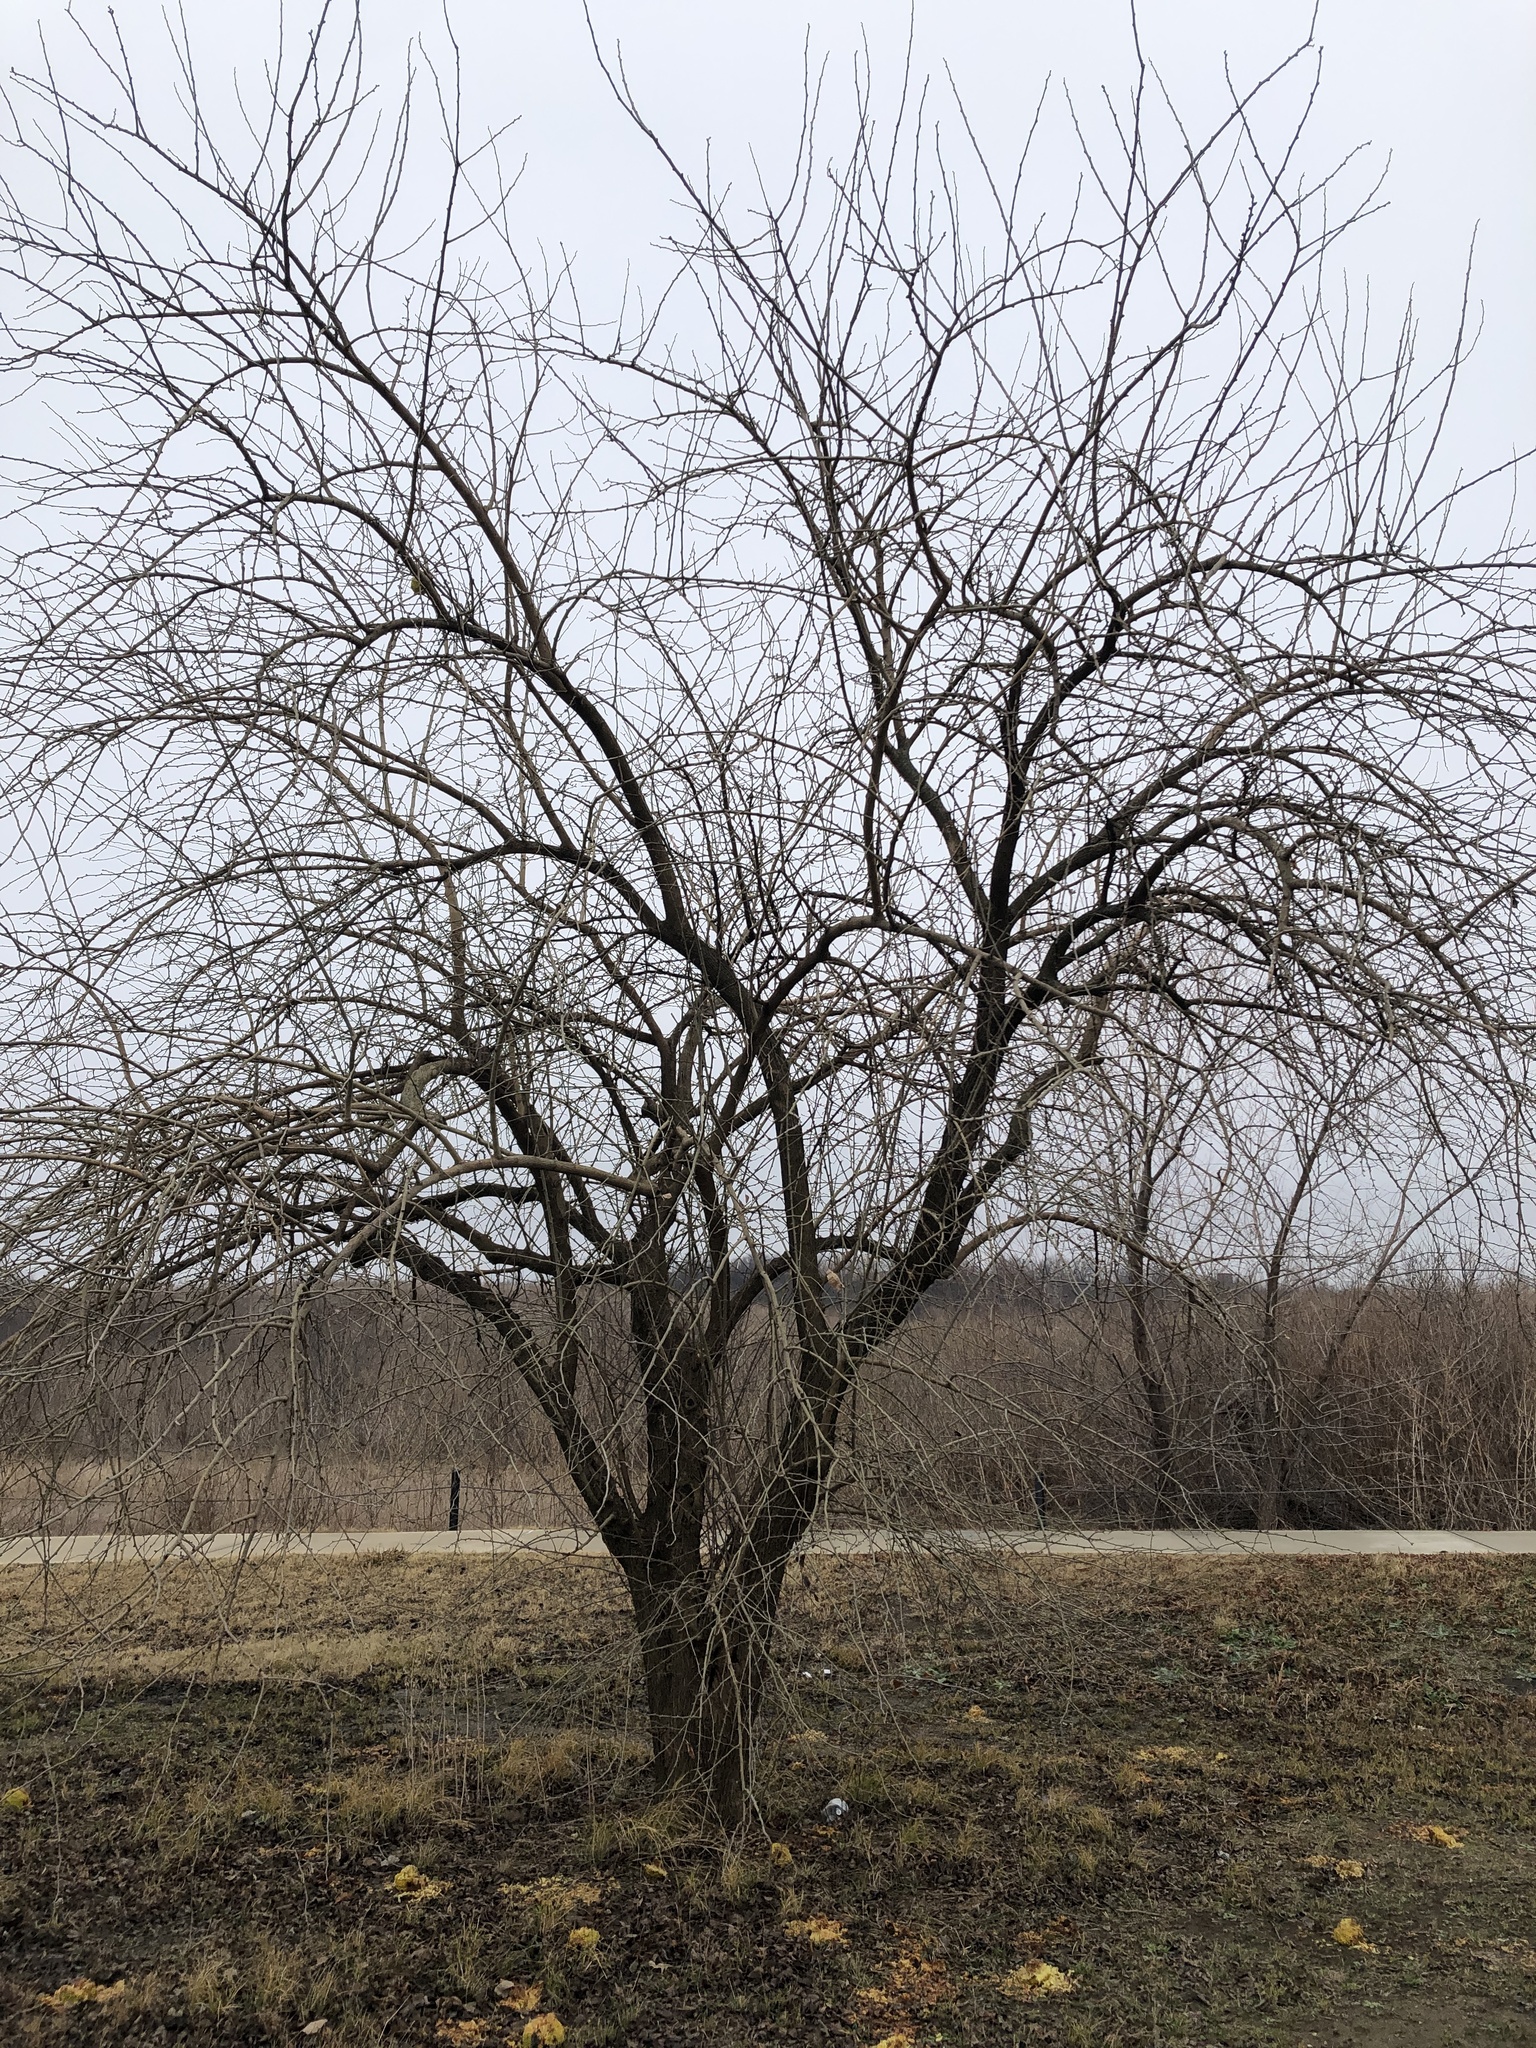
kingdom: Plantae
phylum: Tracheophyta
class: Magnoliopsida
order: Rosales
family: Moraceae
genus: Maclura
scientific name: Maclura pomifera
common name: Osage-orange
